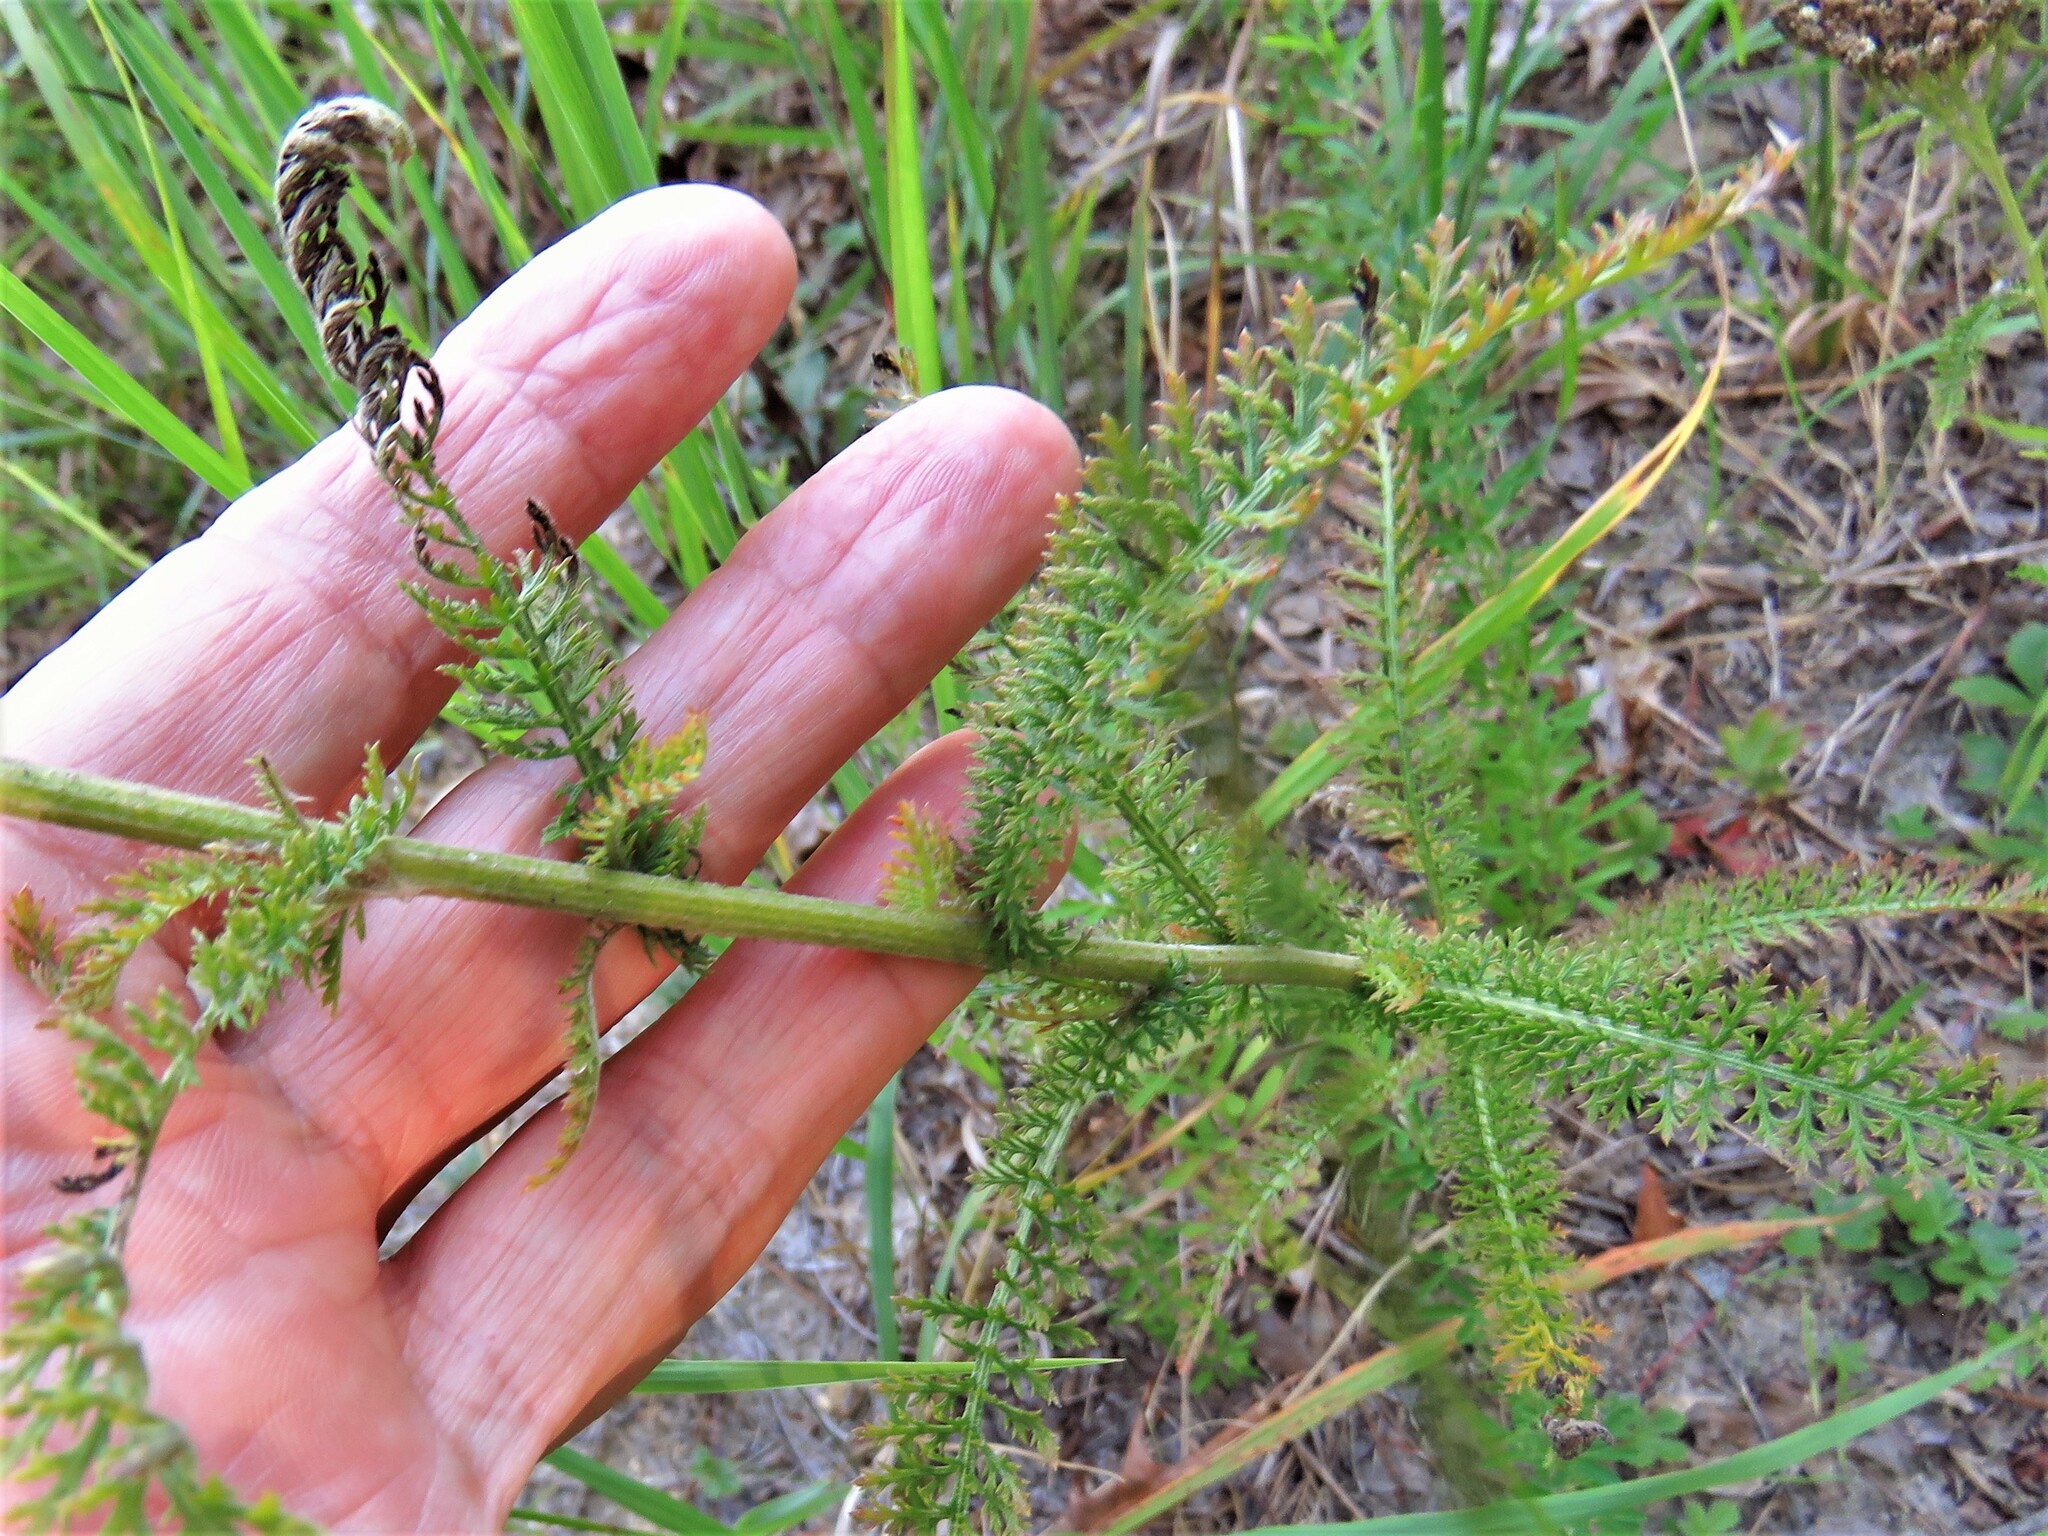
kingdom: Plantae
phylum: Tracheophyta
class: Magnoliopsida
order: Asterales
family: Asteraceae
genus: Achillea
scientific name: Achillea millefolium
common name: Yarrow
